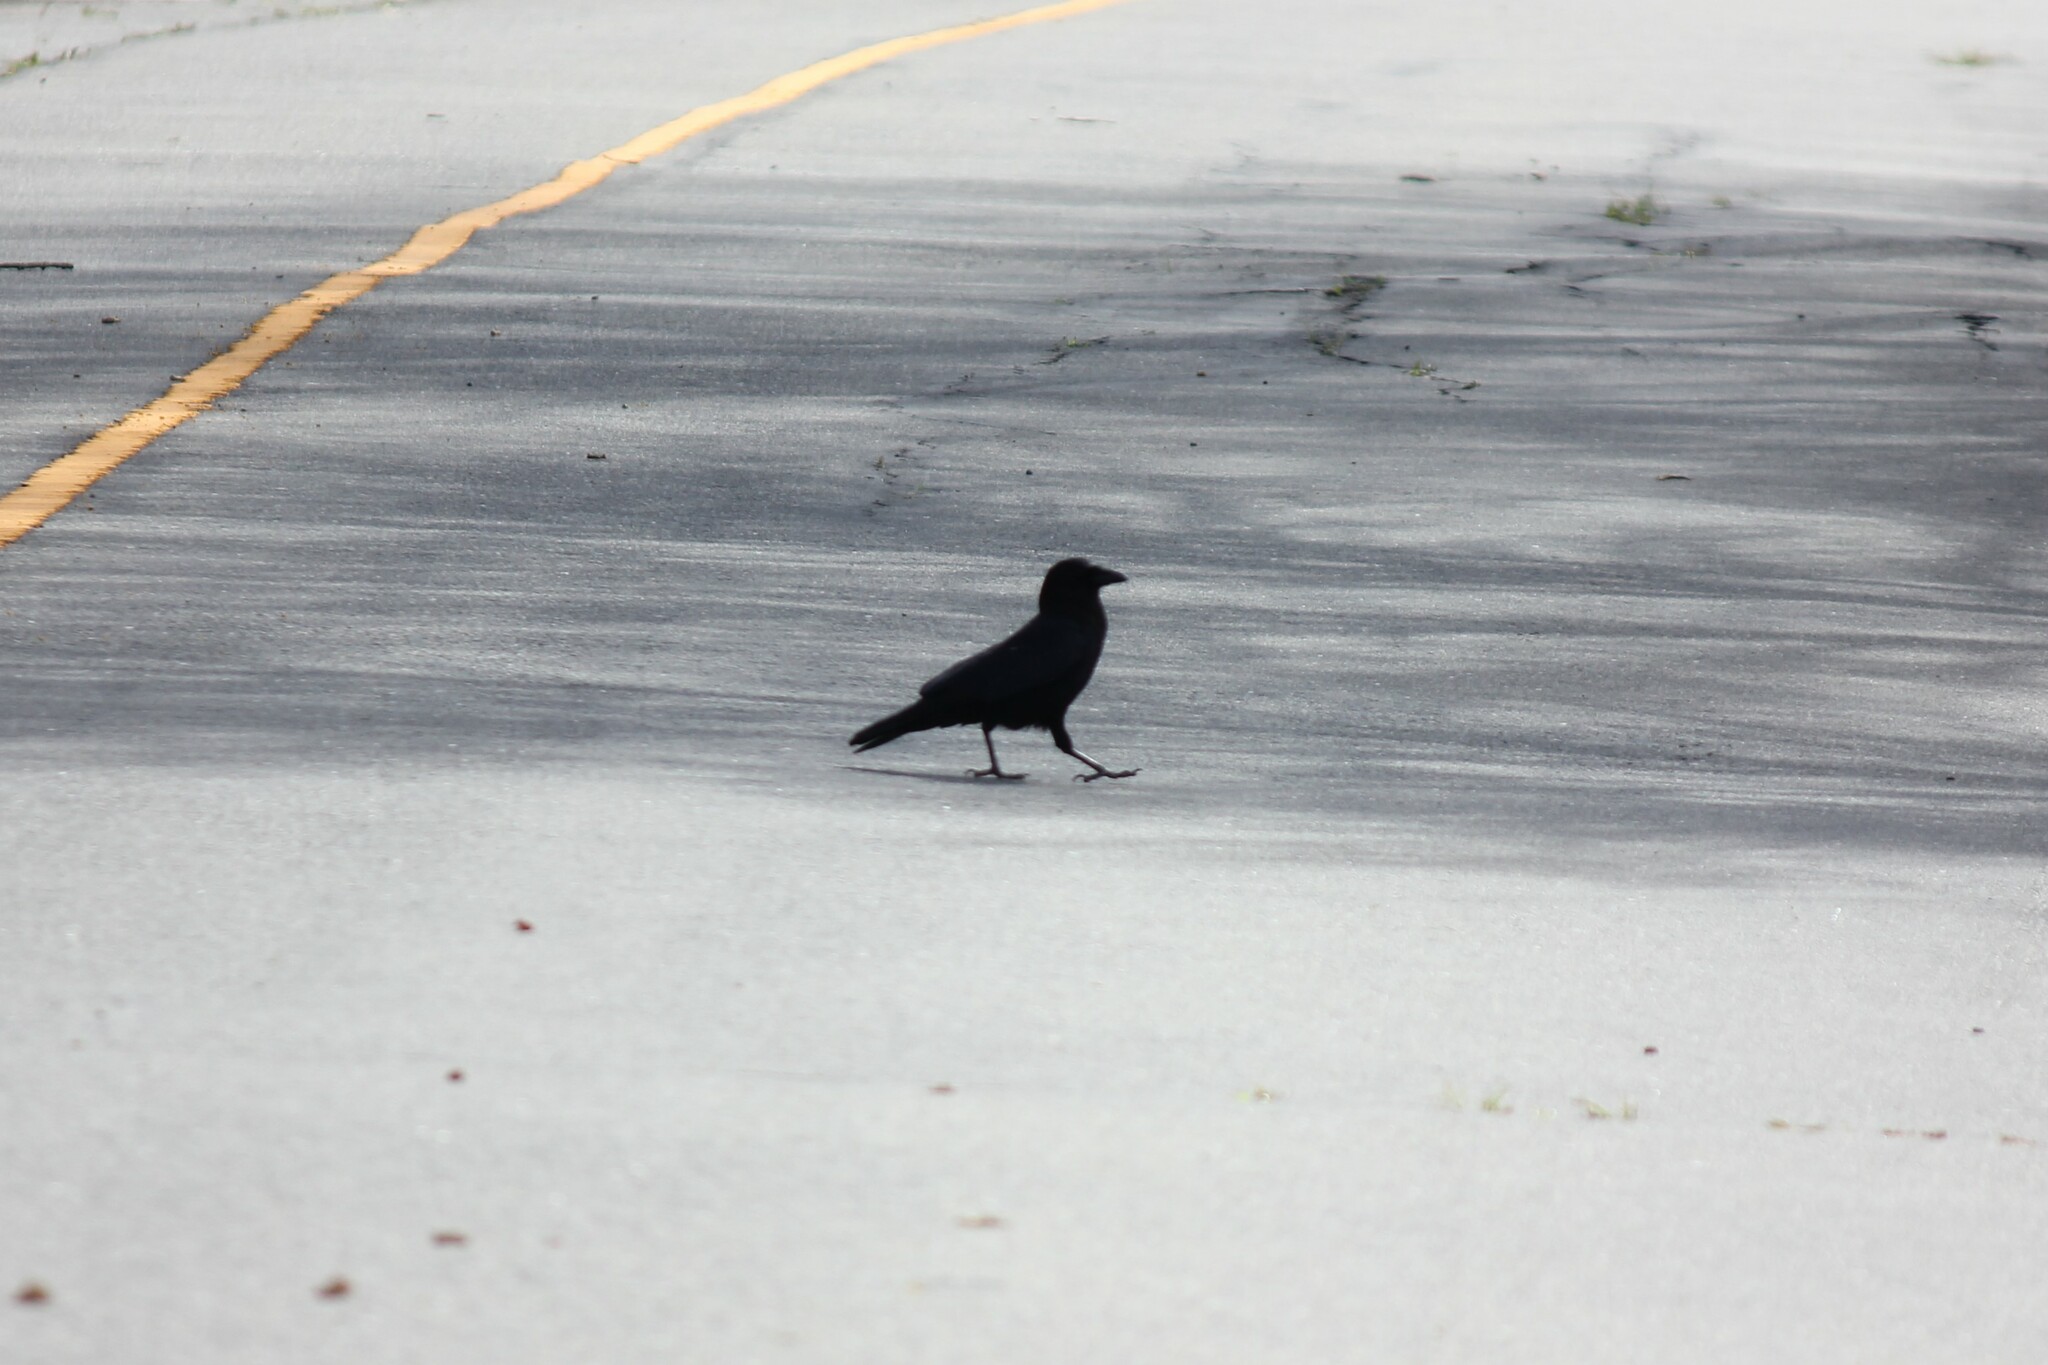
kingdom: Animalia
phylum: Chordata
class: Aves
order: Passeriformes
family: Corvidae
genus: Corvus
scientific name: Corvus brachyrhynchos
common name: American crow
